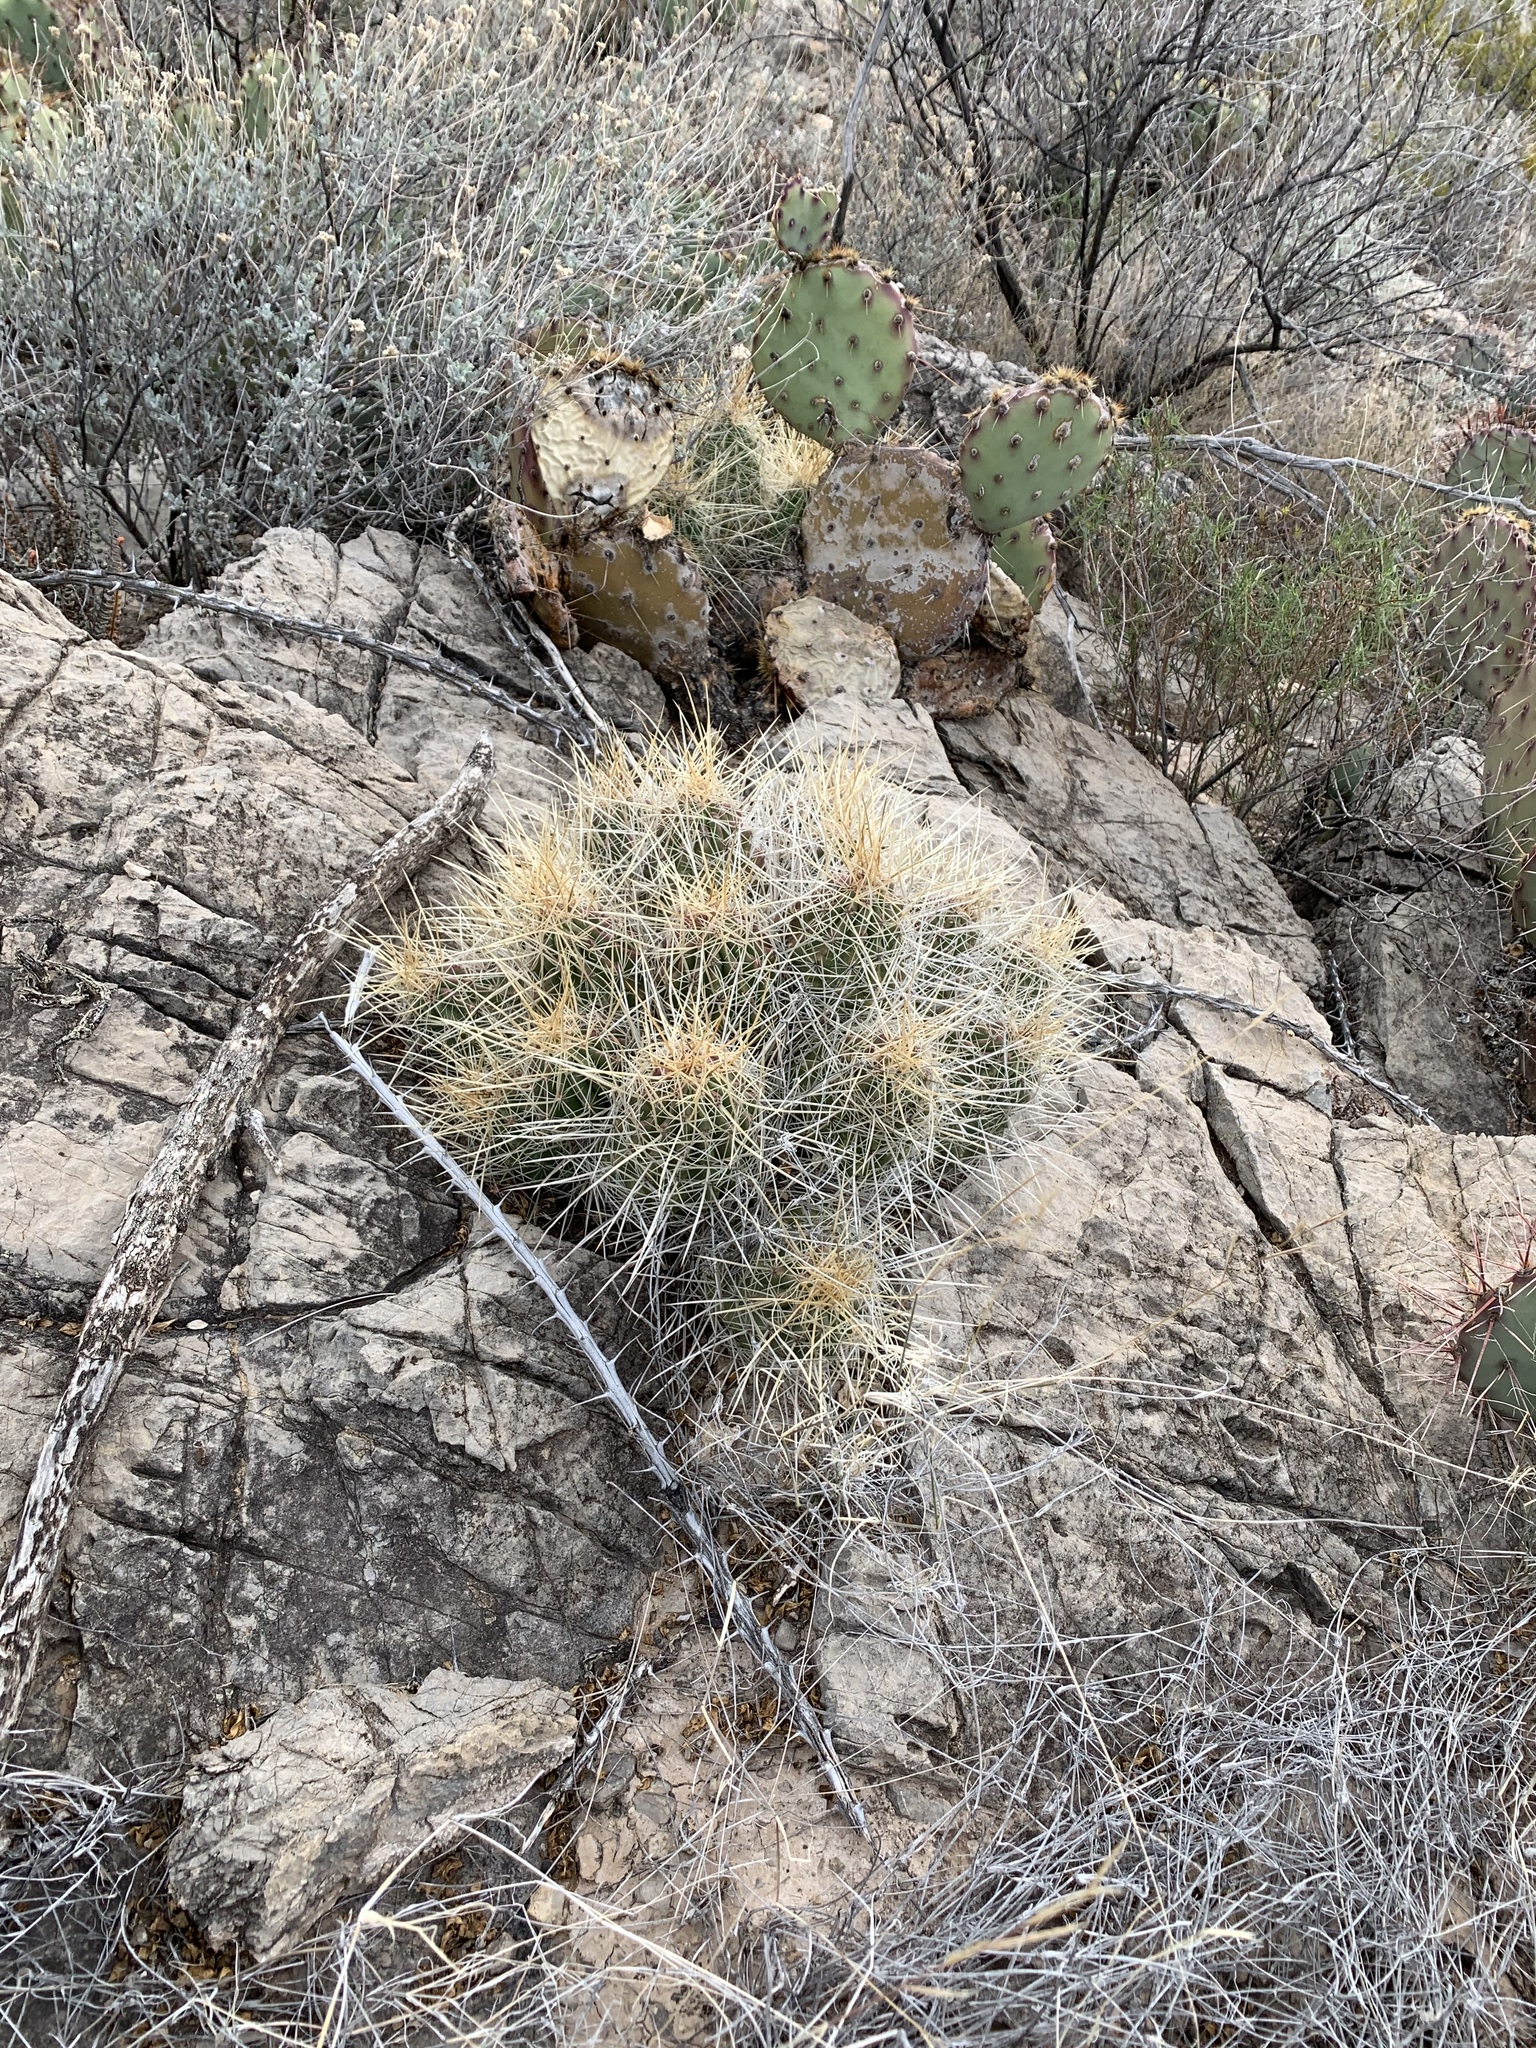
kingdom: Plantae
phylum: Tracheophyta
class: Magnoliopsida
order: Caryophyllales
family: Cactaceae
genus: Echinocereus
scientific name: Echinocereus stramineus
